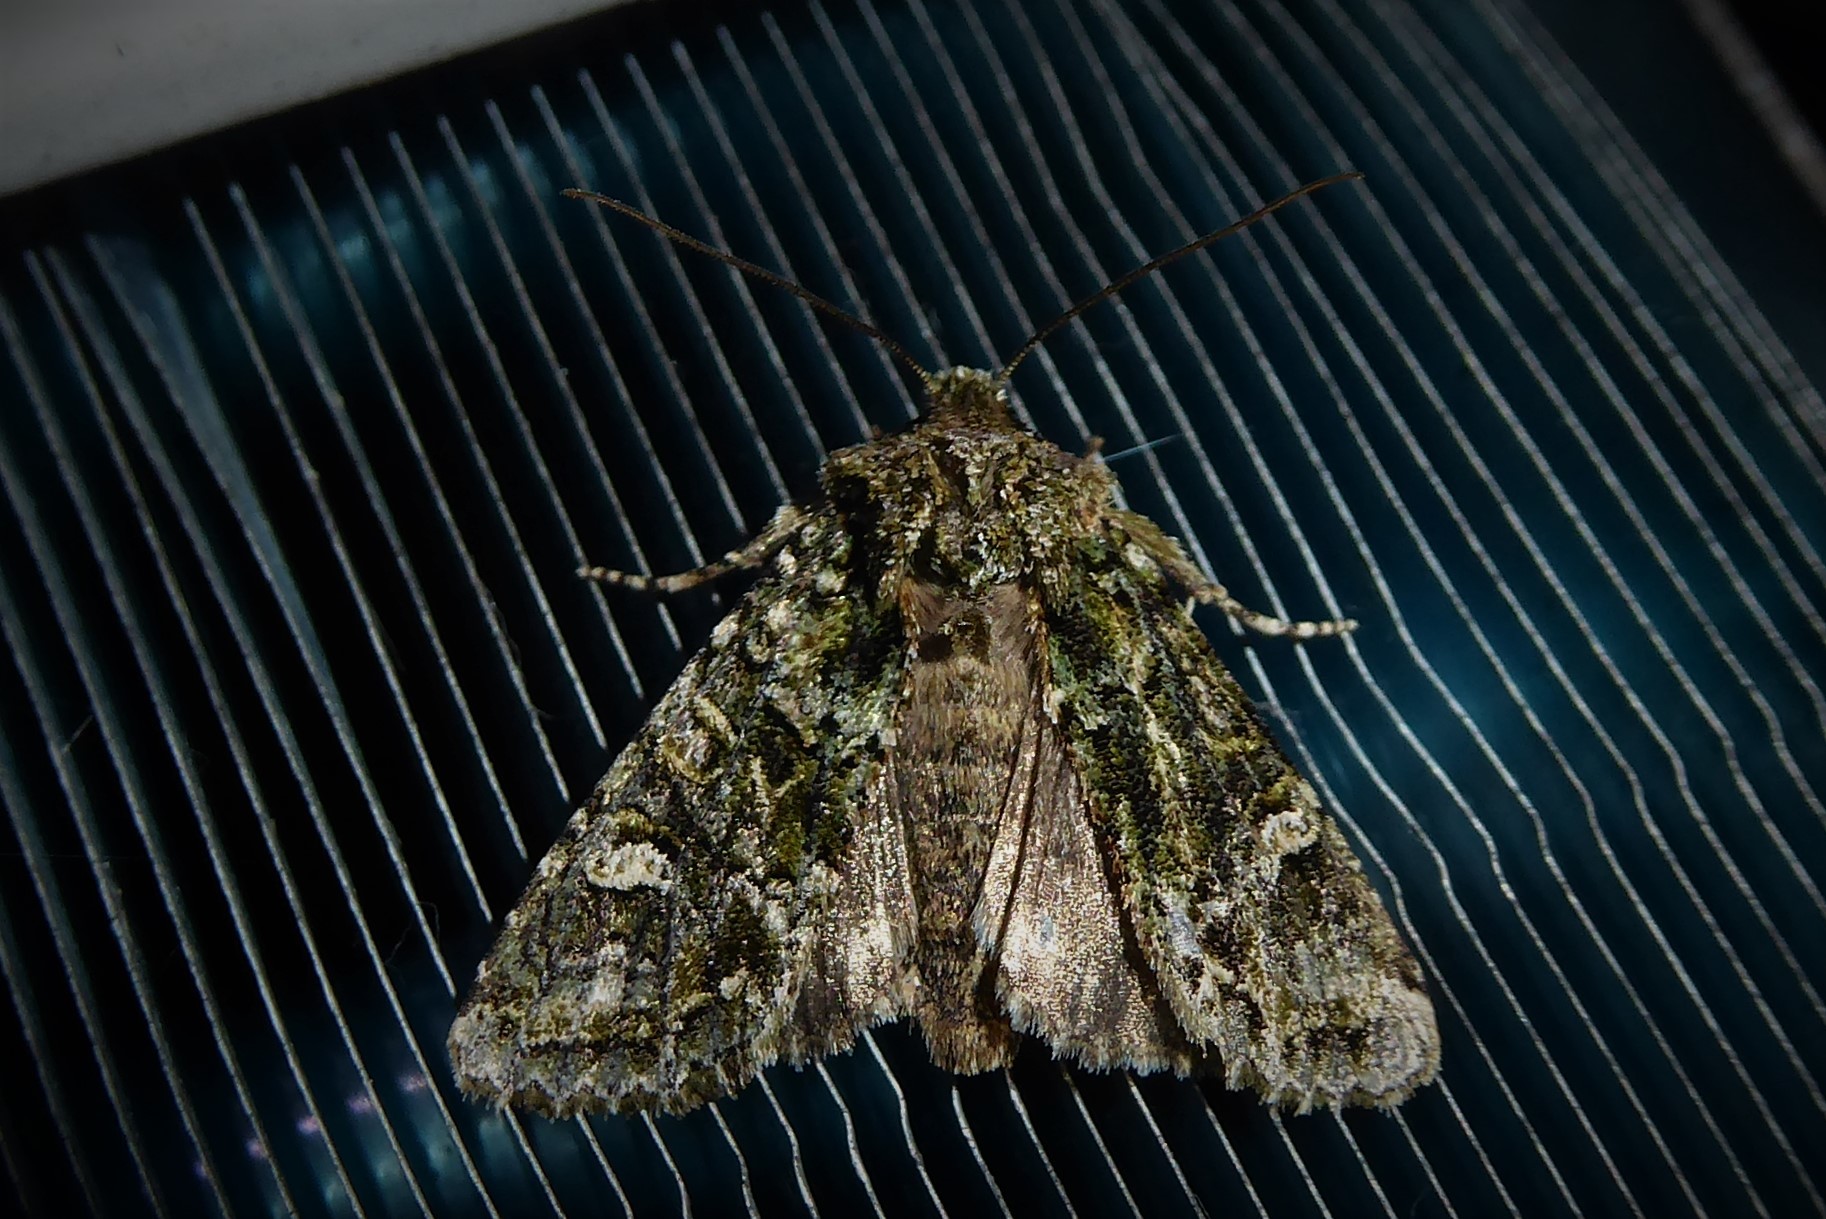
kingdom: Animalia
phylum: Arthropoda
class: Insecta
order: Lepidoptera
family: Noctuidae
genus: Ichneutica
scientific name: Ichneutica
